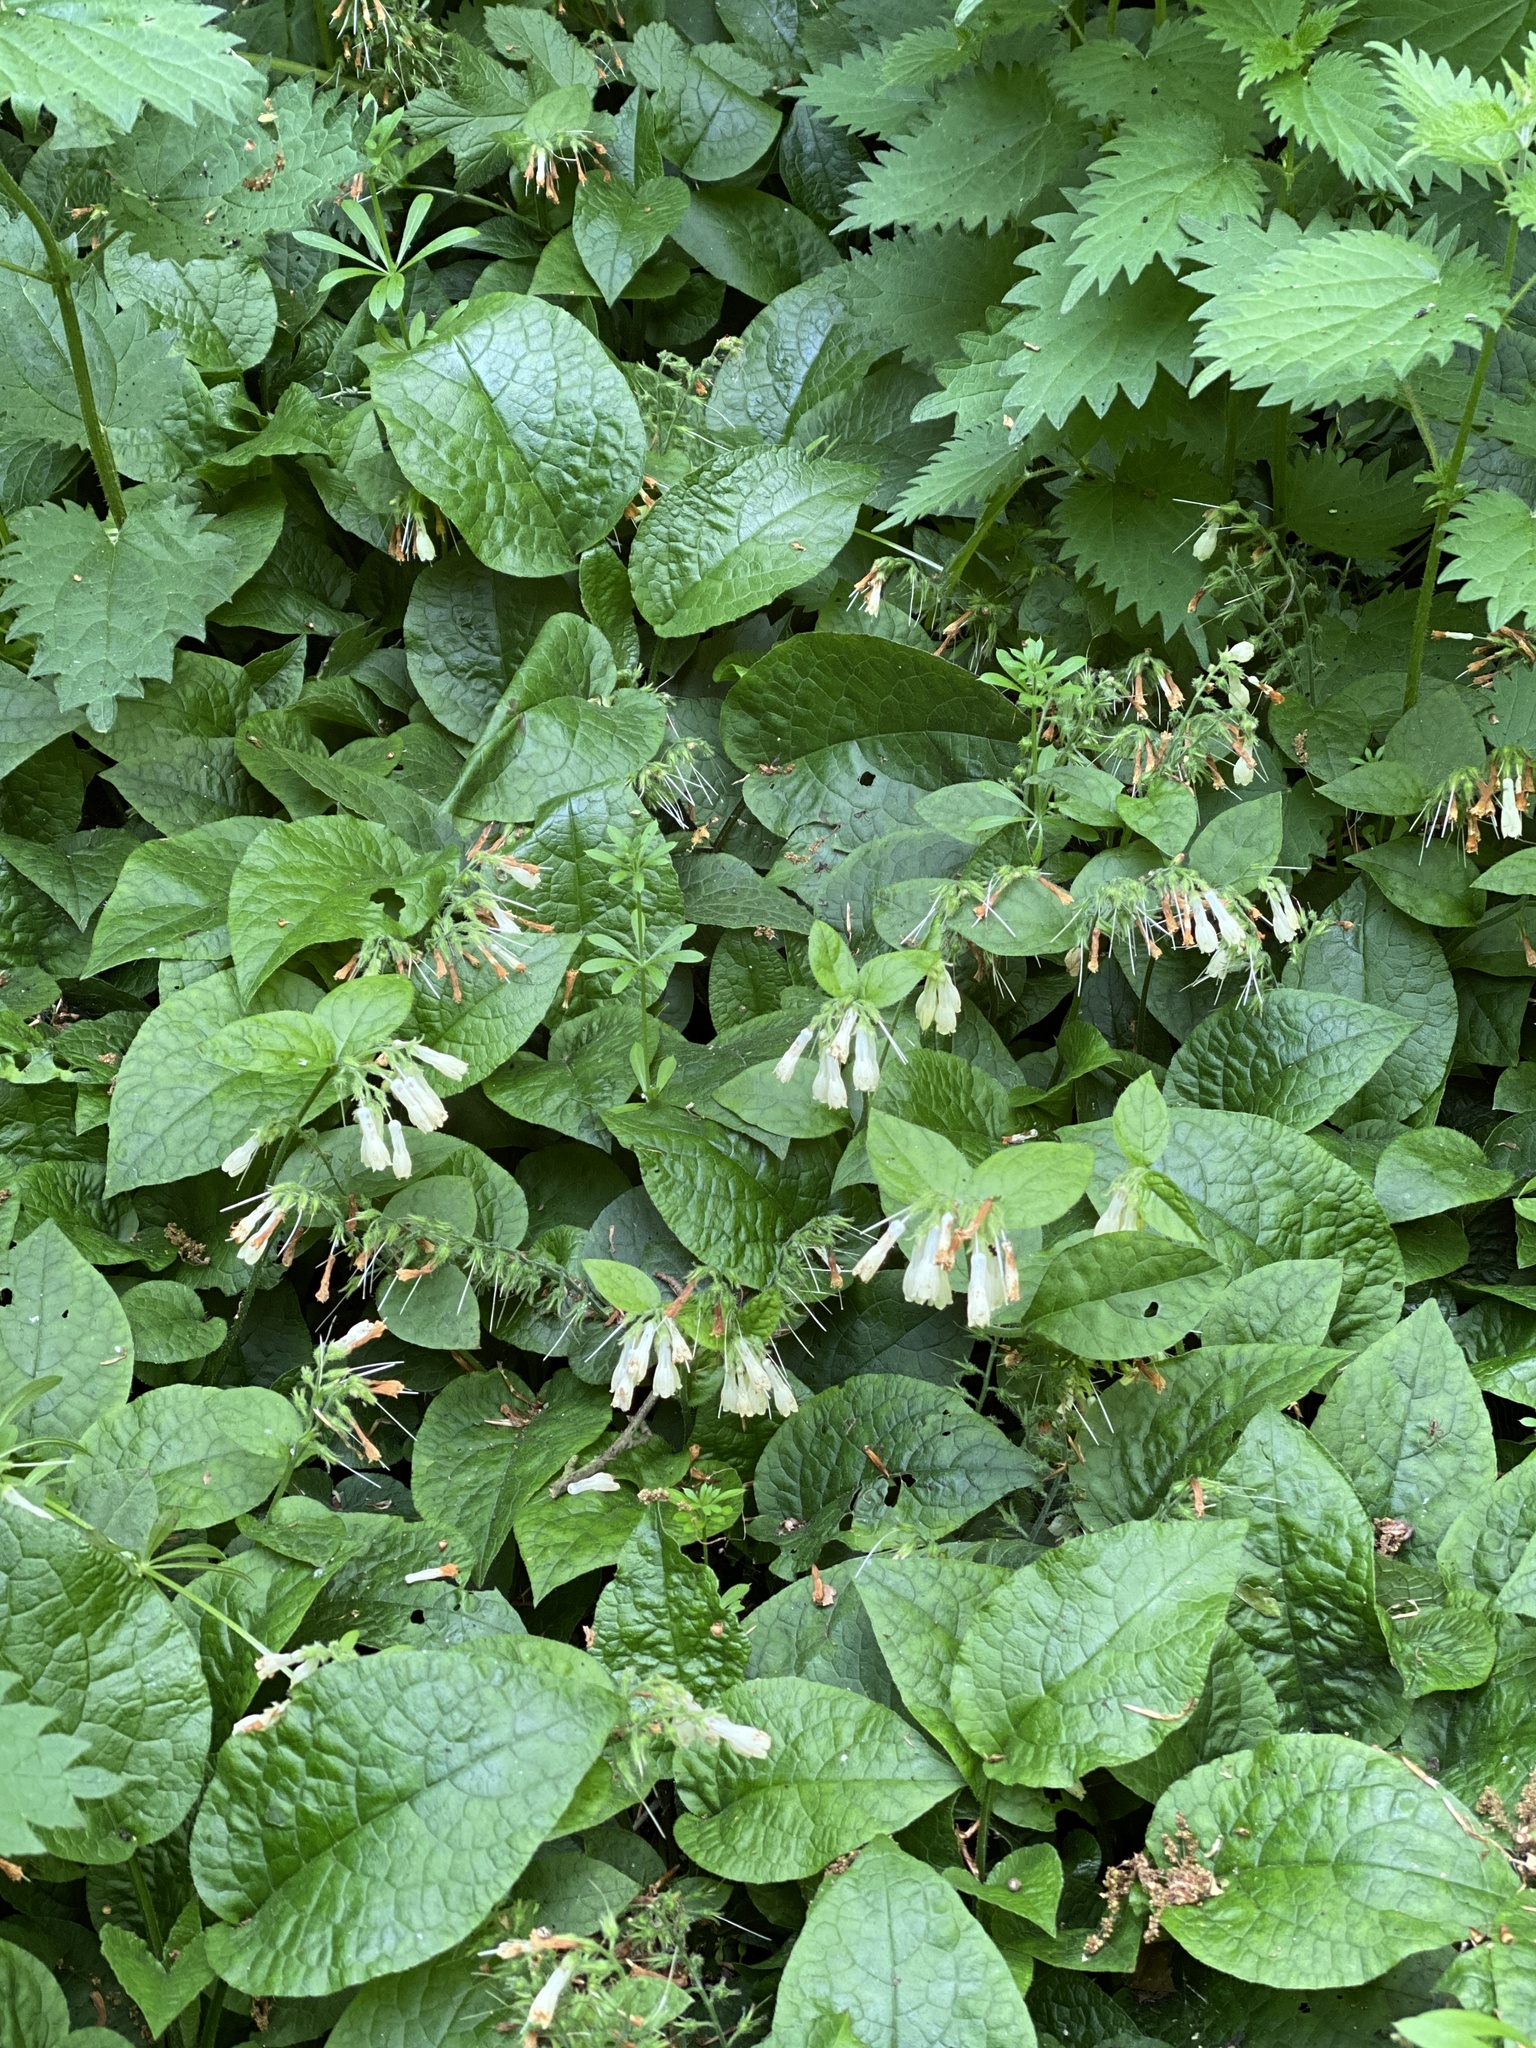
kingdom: Plantae
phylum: Tracheophyta
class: Magnoliopsida
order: Boraginales
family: Boraginaceae
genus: Symphytum
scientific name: Symphytum grandiflorum
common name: Creeping comfrey
